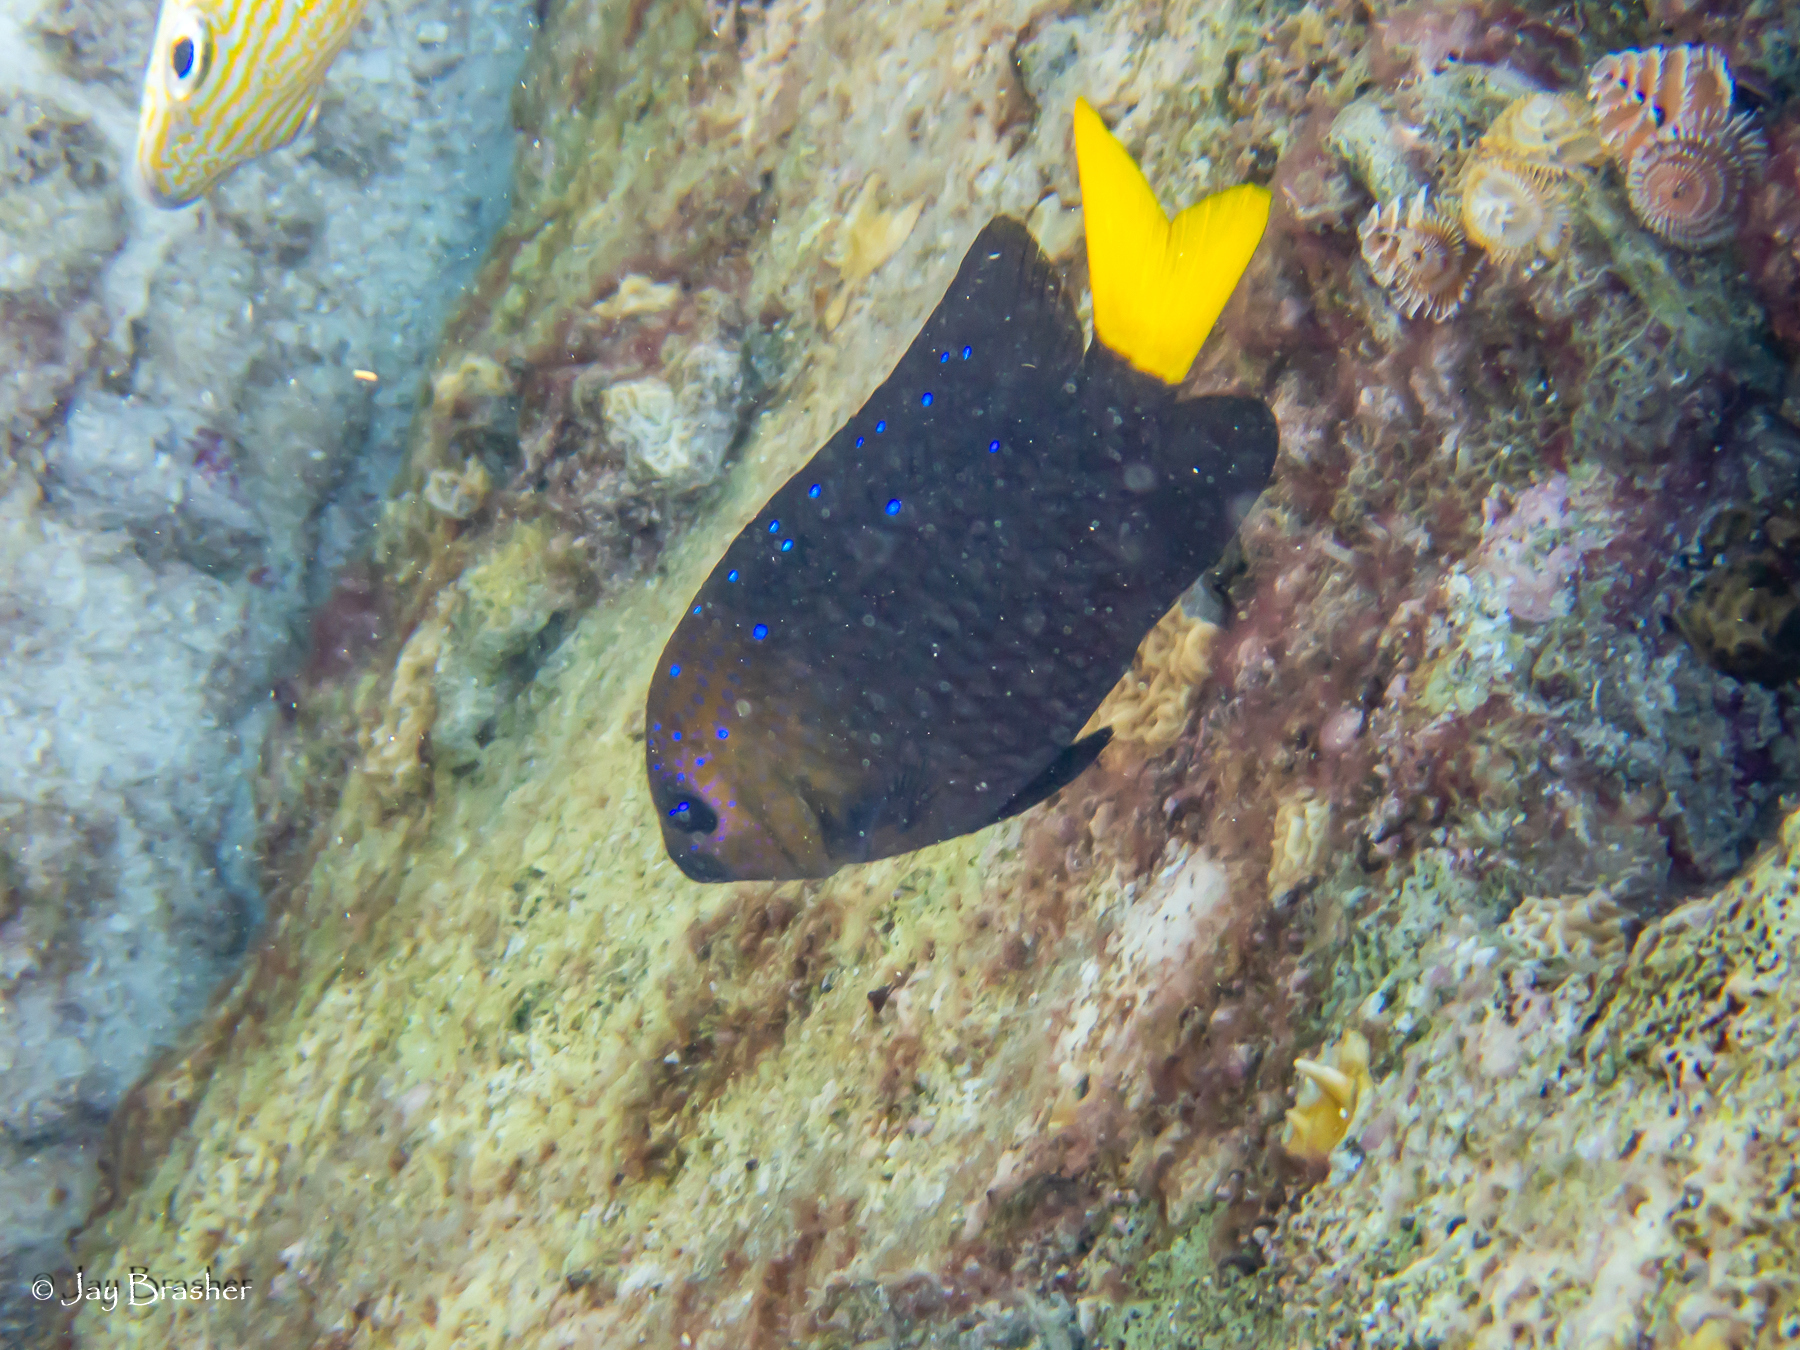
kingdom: Animalia
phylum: Chordata
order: Perciformes
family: Pomacentridae
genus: Microspathodon
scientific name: Microspathodon chrysurus
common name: Yellowtail damselfish
